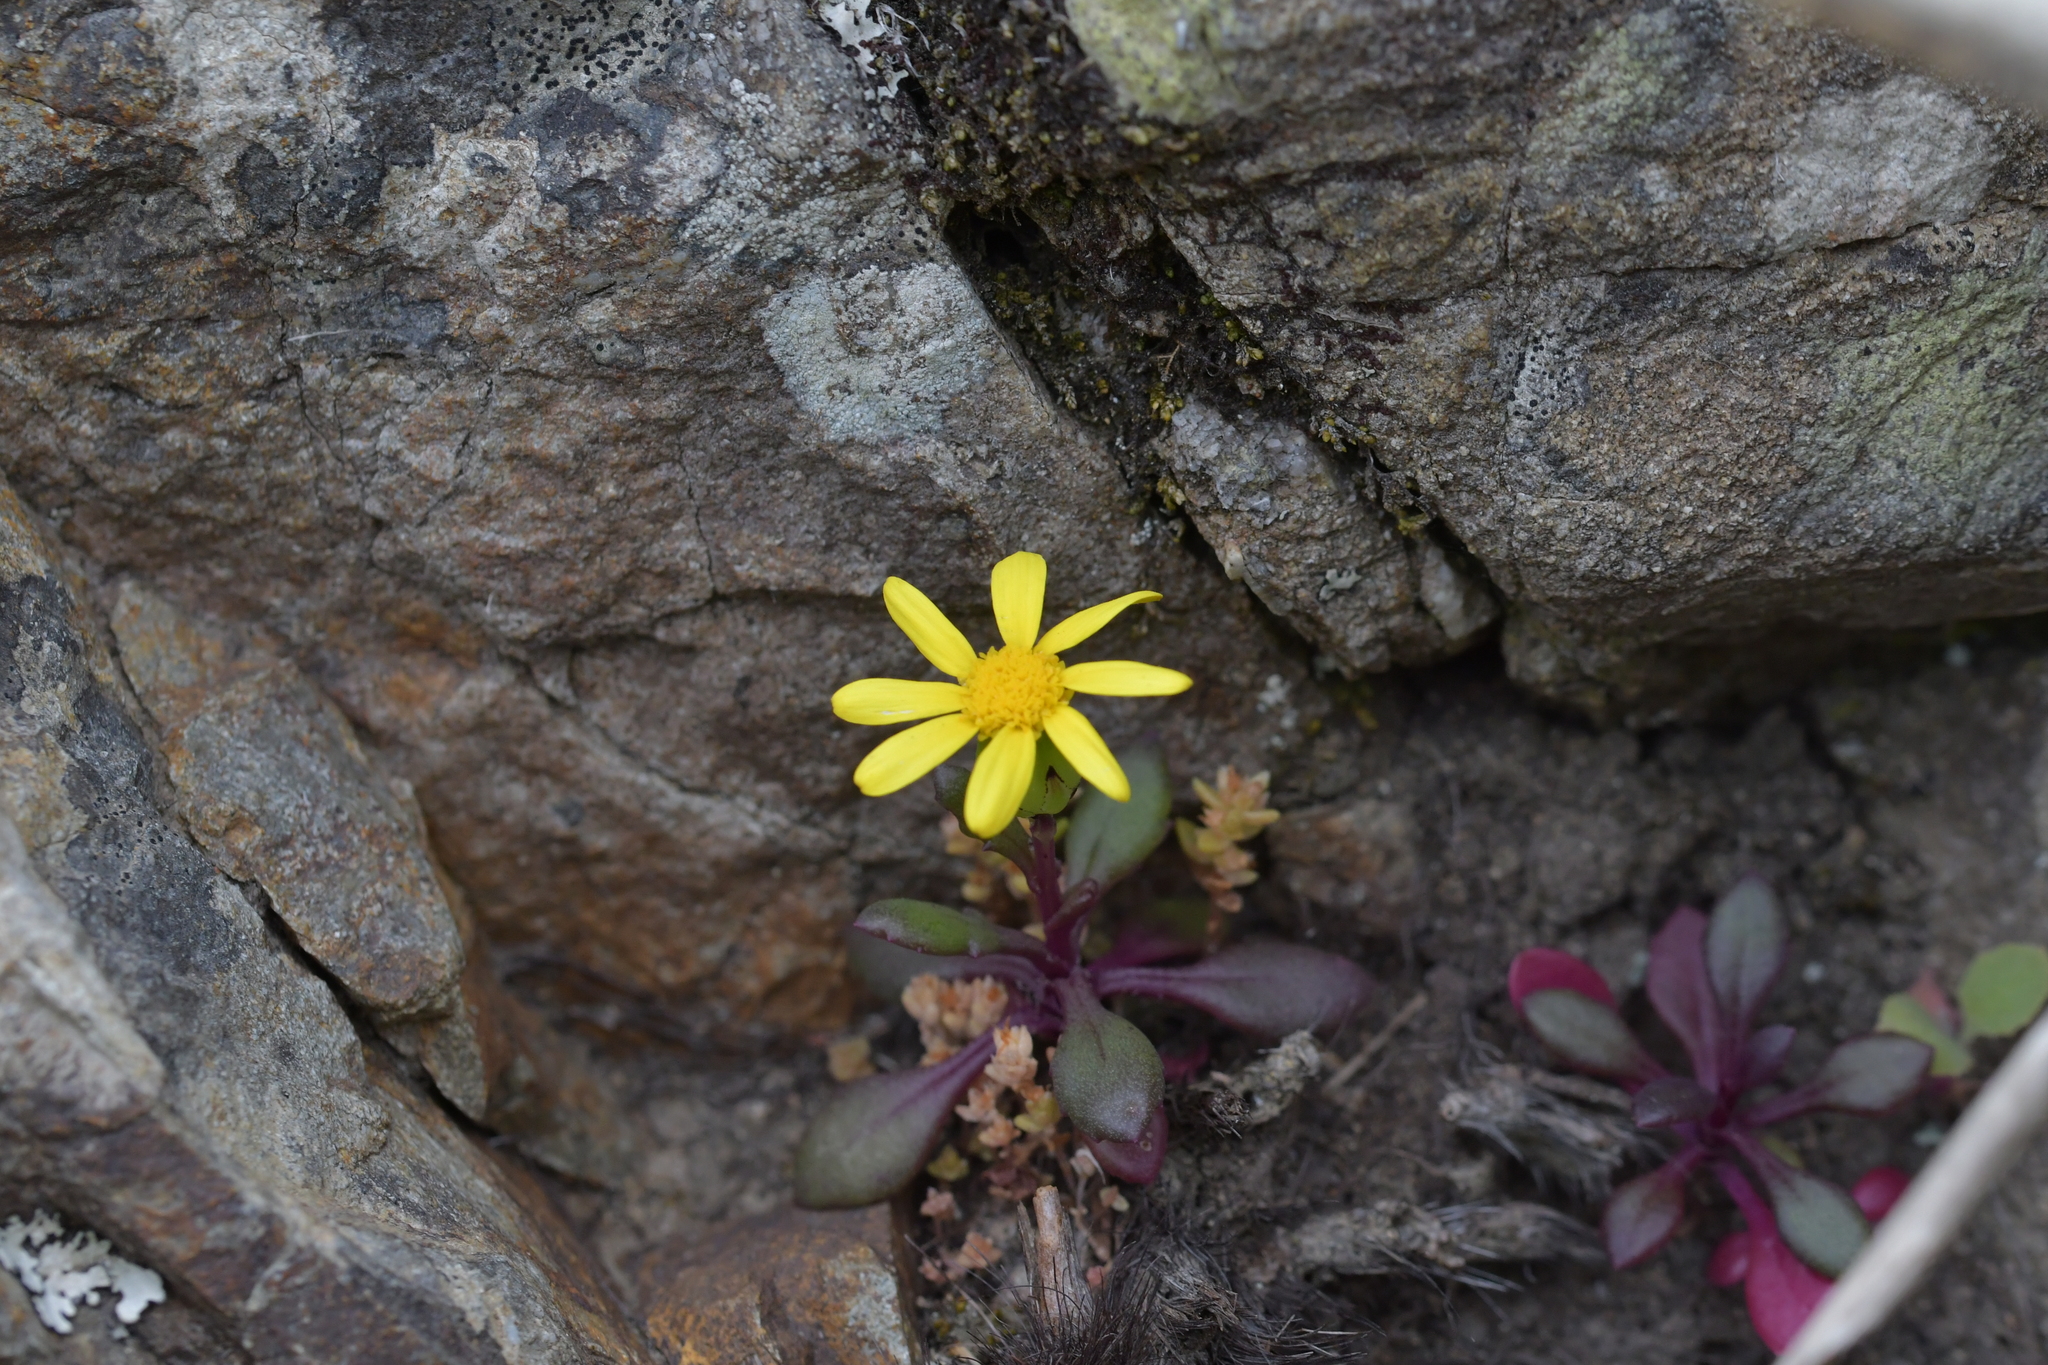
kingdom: Plantae
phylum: Tracheophyta
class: Magnoliopsida
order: Asterales
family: Asteraceae
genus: Senecio
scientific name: Senecio lautus
